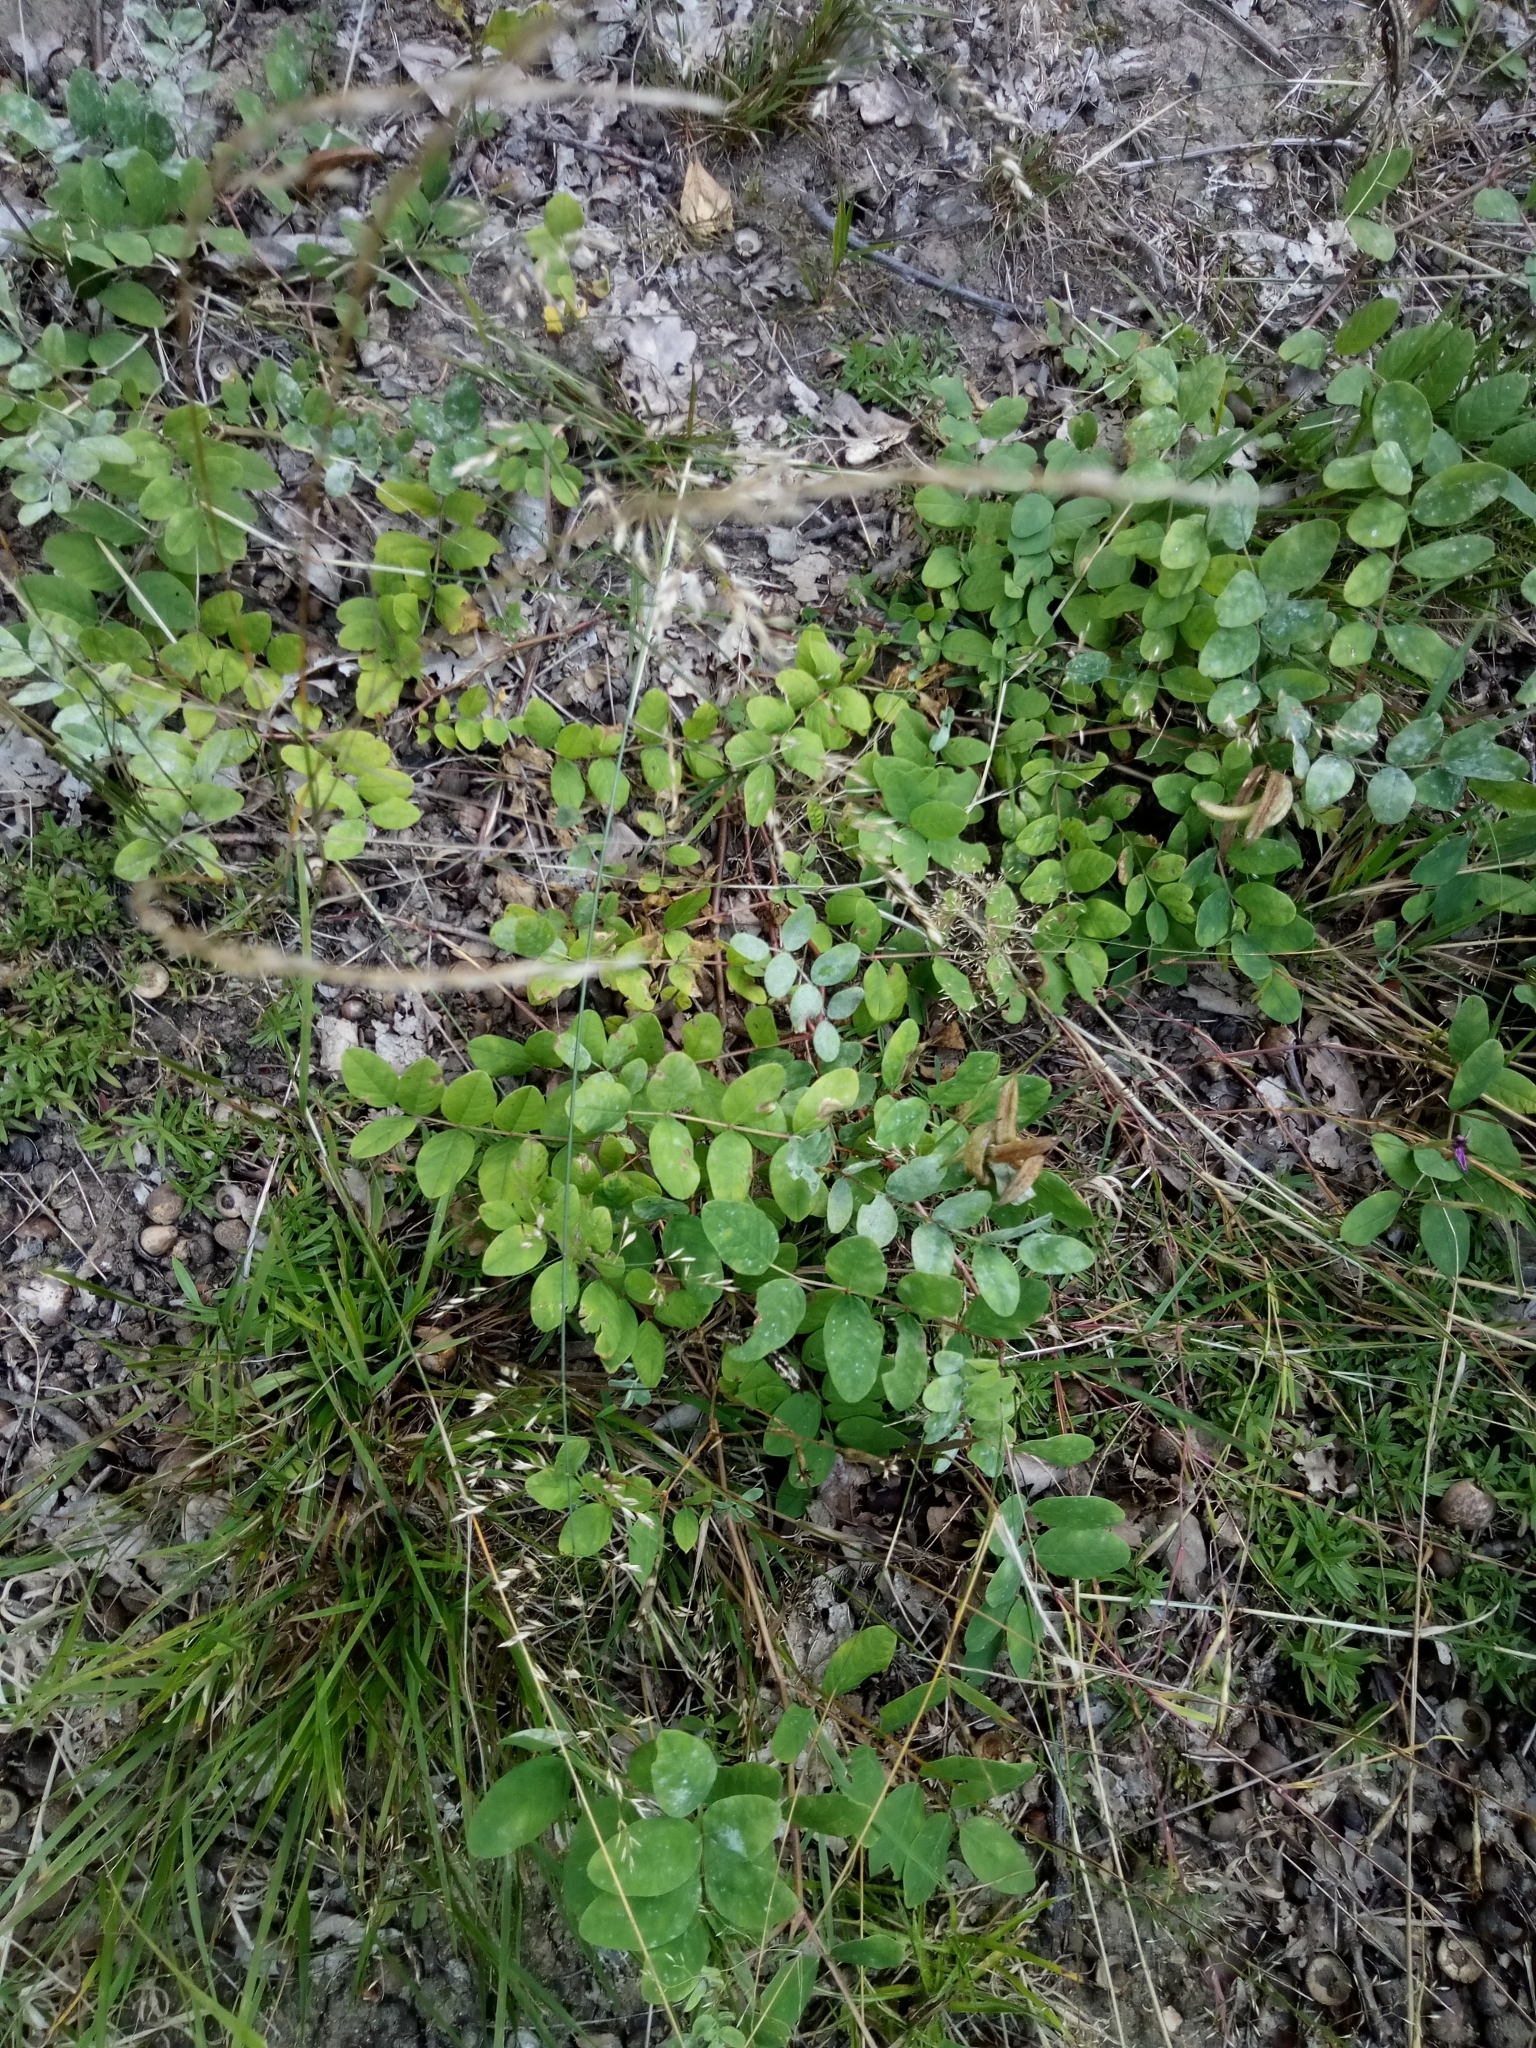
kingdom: Plantae
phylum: Tracheophyta
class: Magnoliopsida
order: Fabales
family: Fabaceae
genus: Astragalus
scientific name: Astragalus glycyphyllos
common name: Wild liquorice
